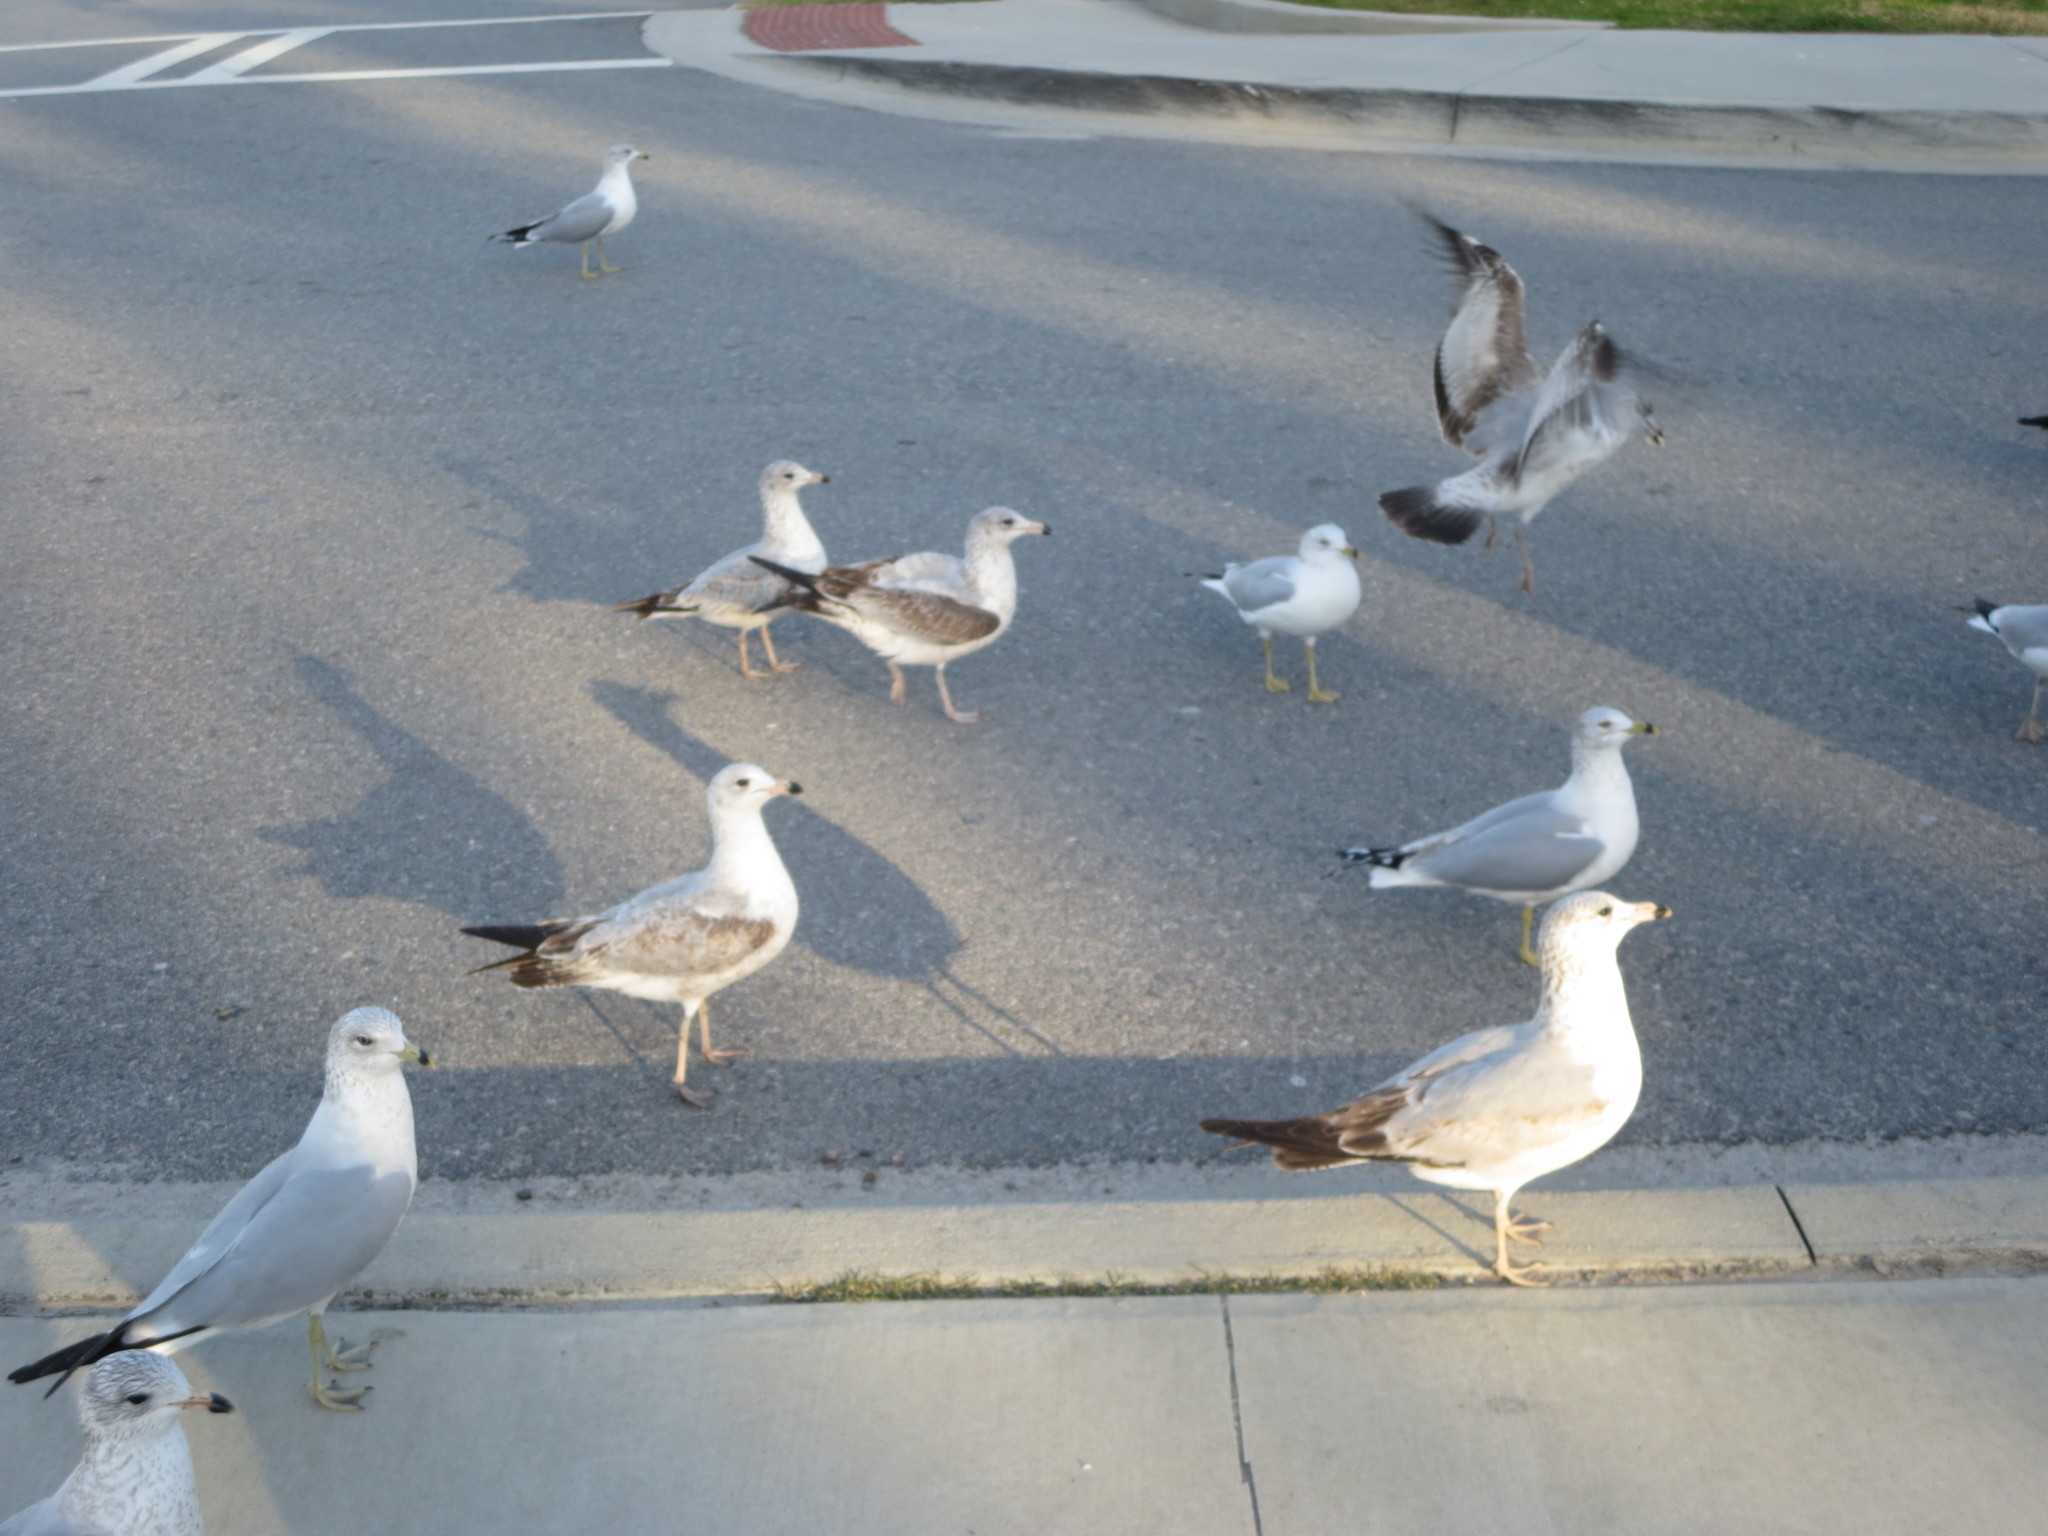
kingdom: Animalia
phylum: Chordata
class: Aves
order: Charadriiformes
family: Laridae
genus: Larus
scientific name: Larus delawarensis
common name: Ring-billed gull
